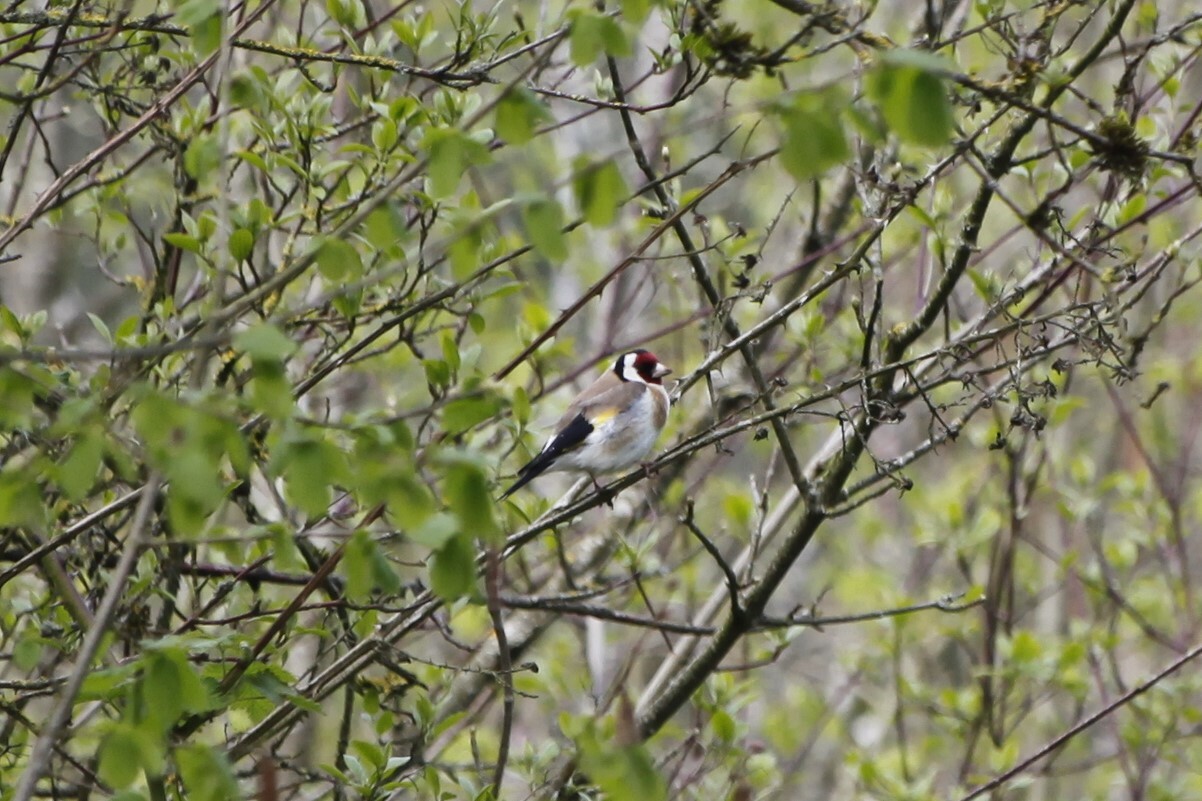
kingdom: Animalia
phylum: Chordata
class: Aves
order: Passeriformes
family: Fringillidae
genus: Carduelis
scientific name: Carduelis carduelis
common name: European goldfinch
